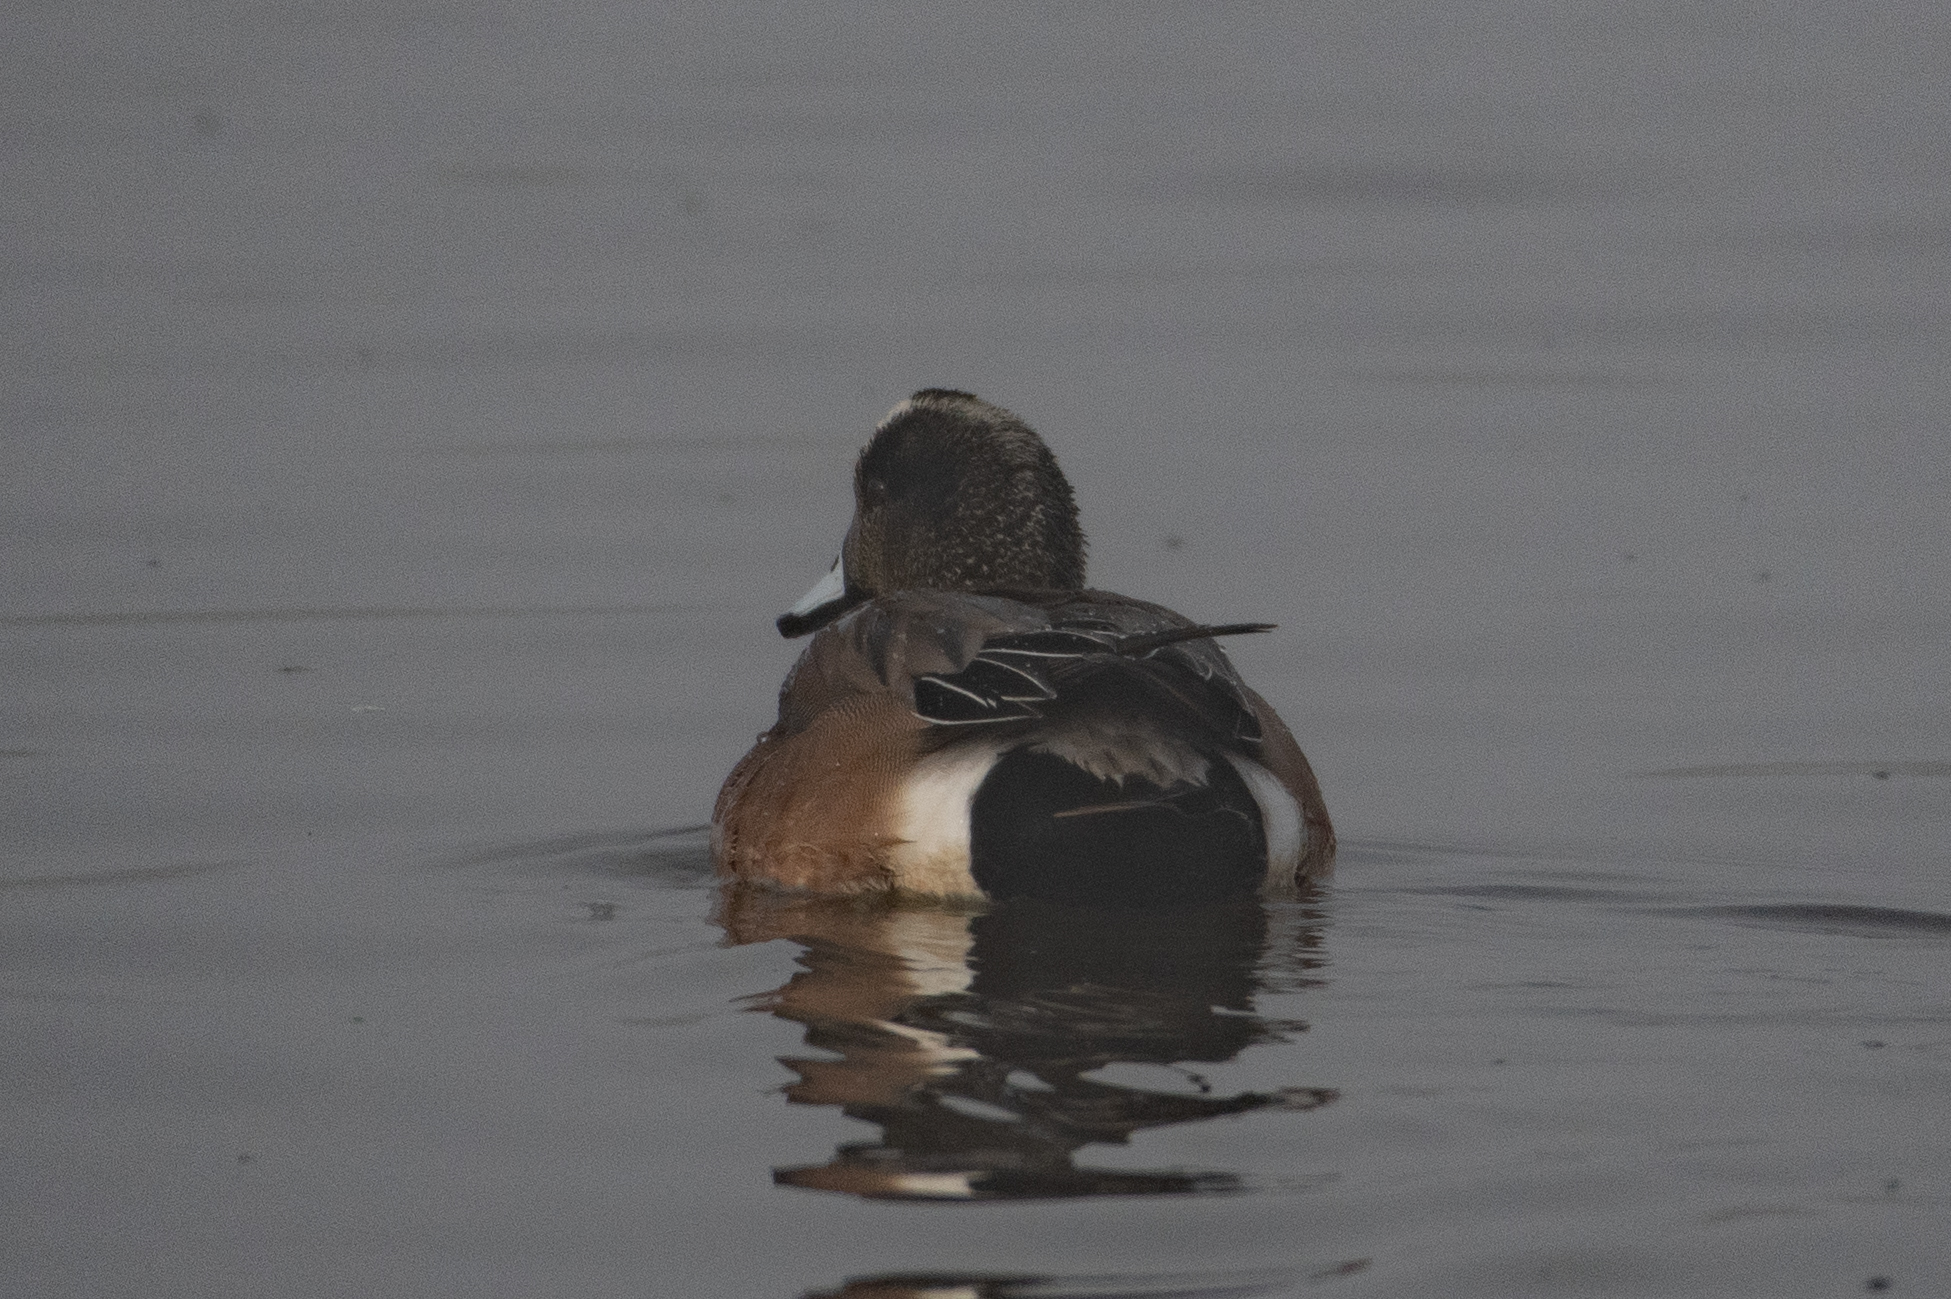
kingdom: Animalia
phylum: Chordata
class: Aves
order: Anseriformes
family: Anatidae
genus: Mareca
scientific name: Mareca americana
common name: American wigeon
